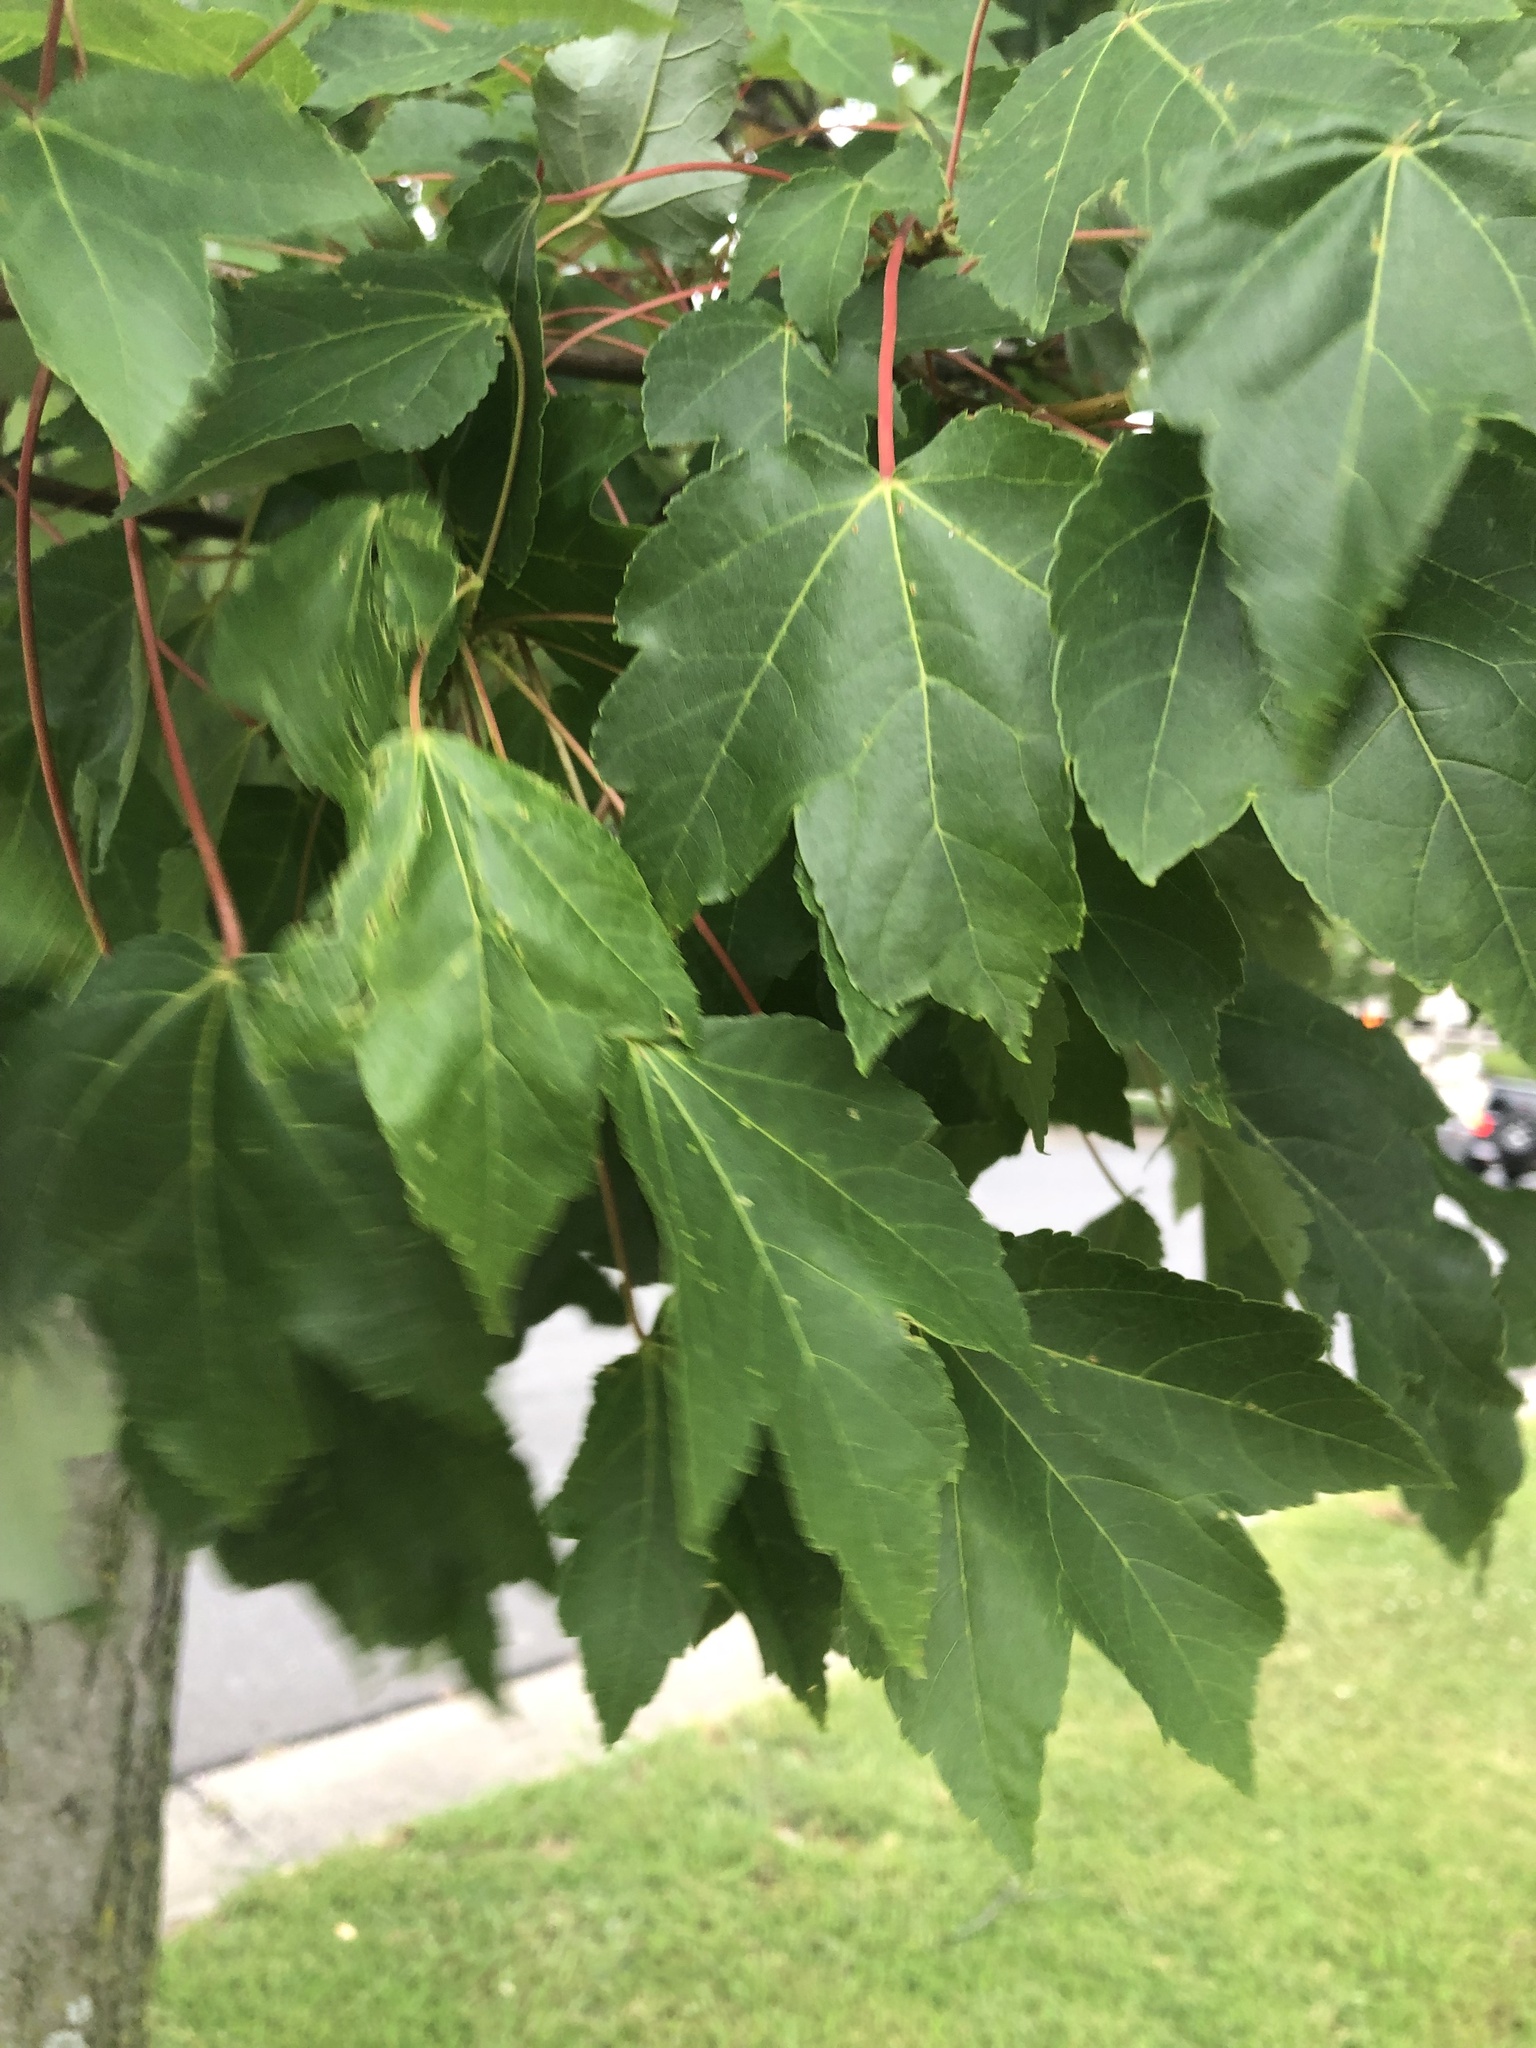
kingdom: Plantae
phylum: Tracheophyta
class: Magnoliopsida
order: Sapindales
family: Sapindaceae
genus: Acer
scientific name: Acer rubrum
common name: Red maple
